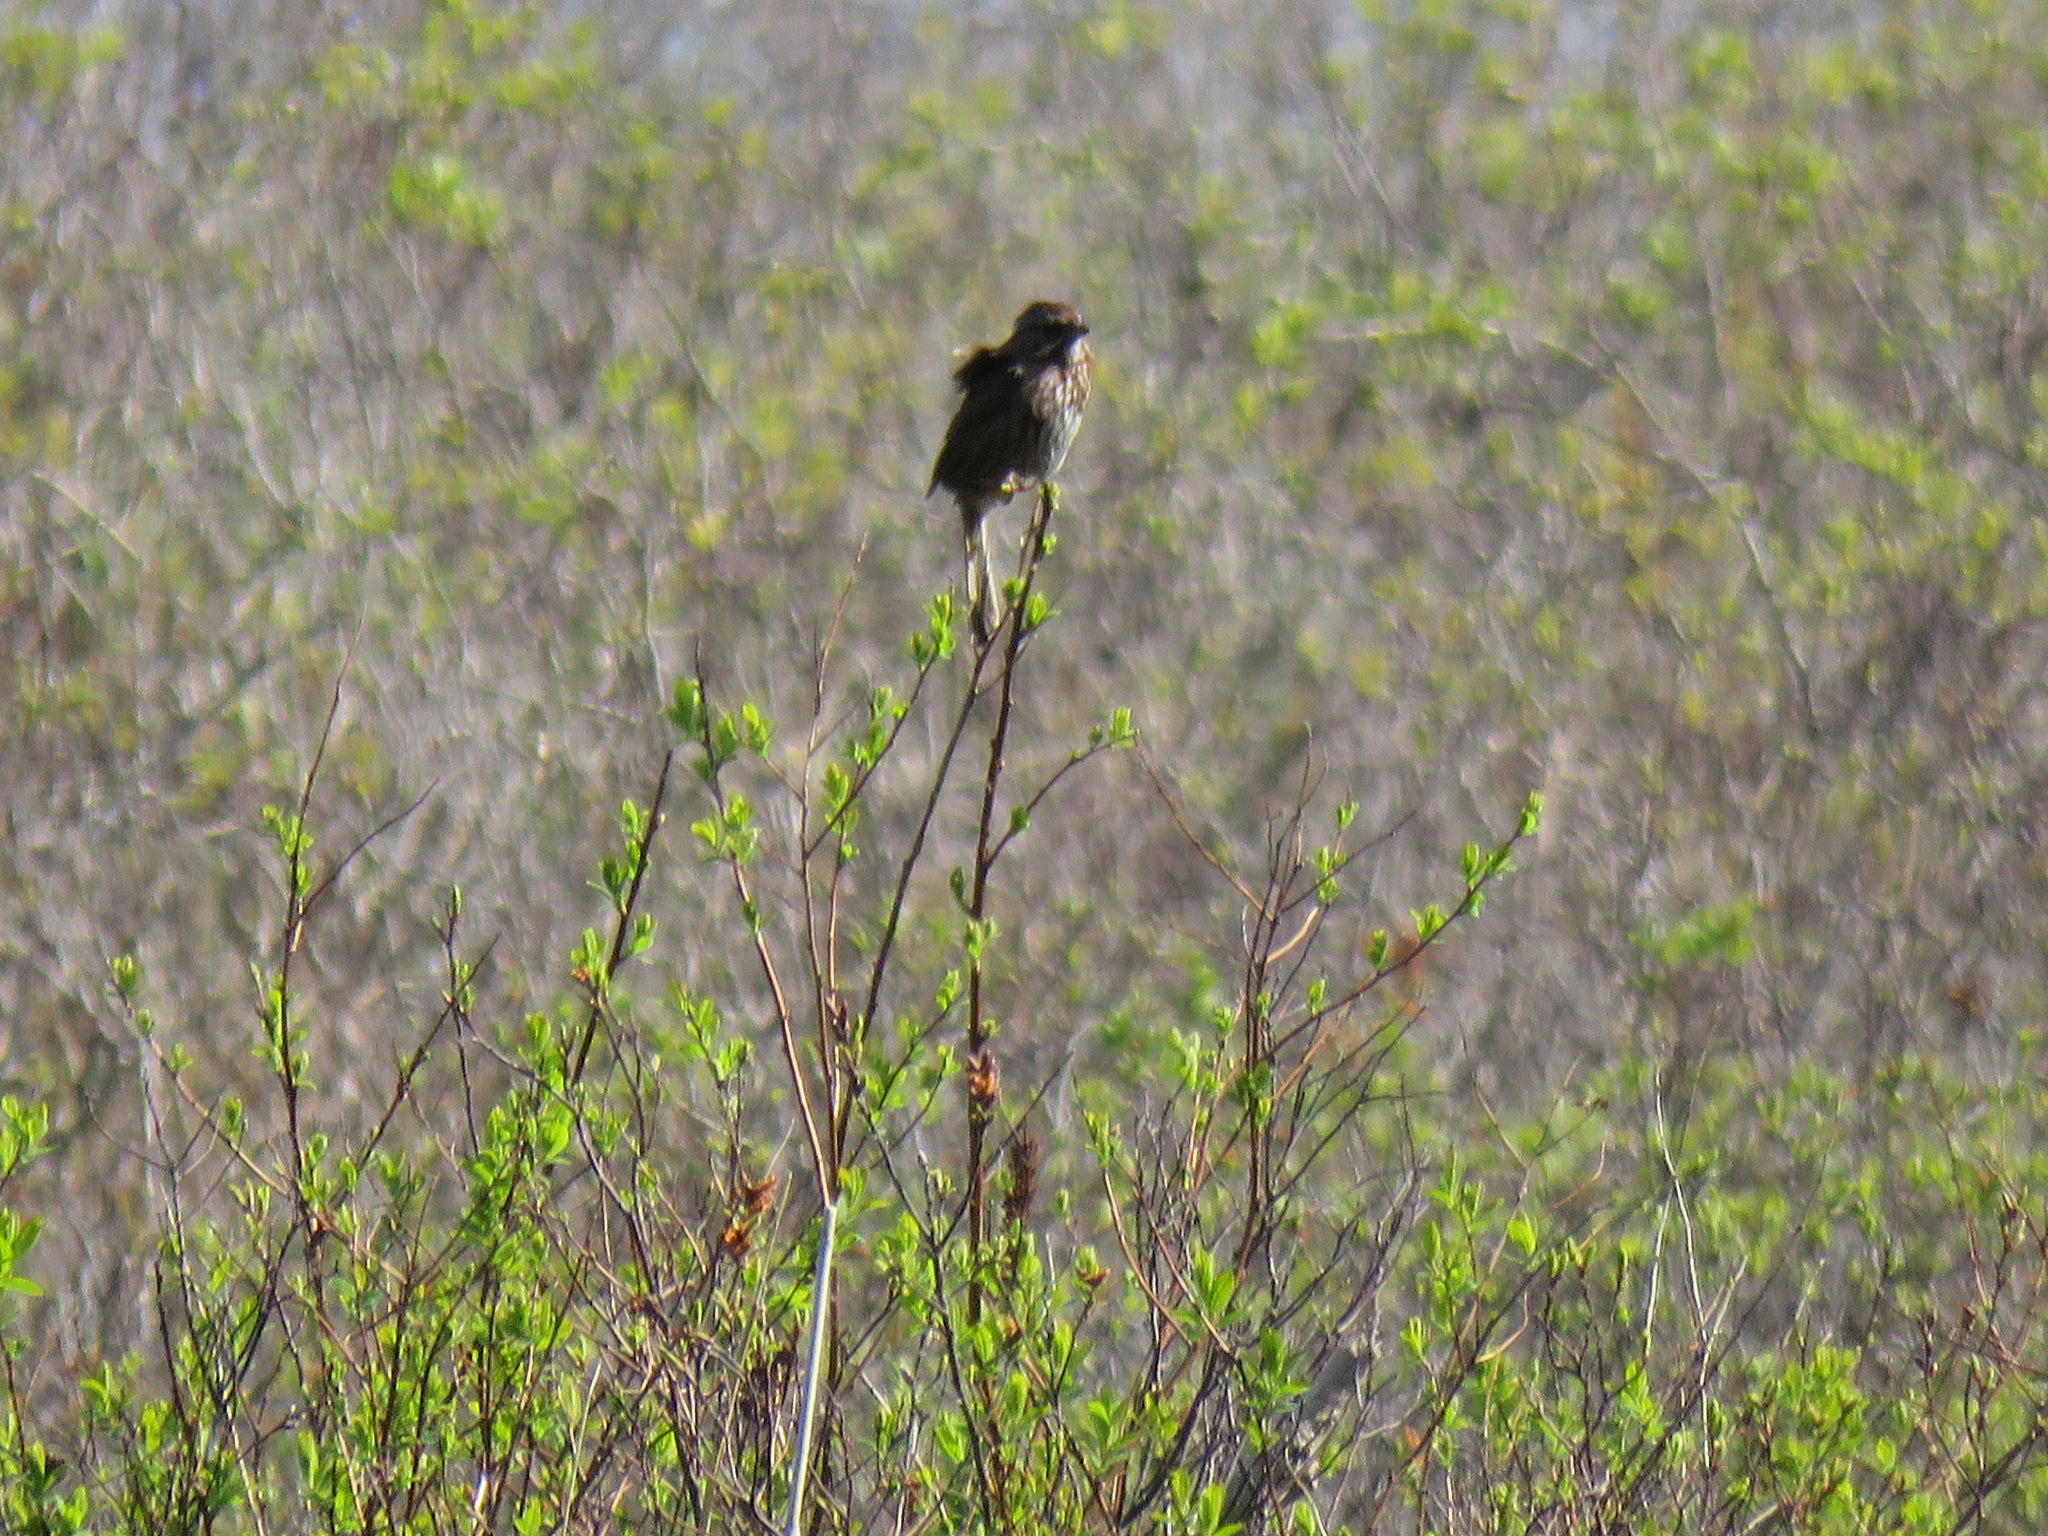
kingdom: Animalia
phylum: Chordata
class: Aves
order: Passeriformes
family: Passerellidae
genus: Melospiza
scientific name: Melospiza melodia
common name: Song sparrow
